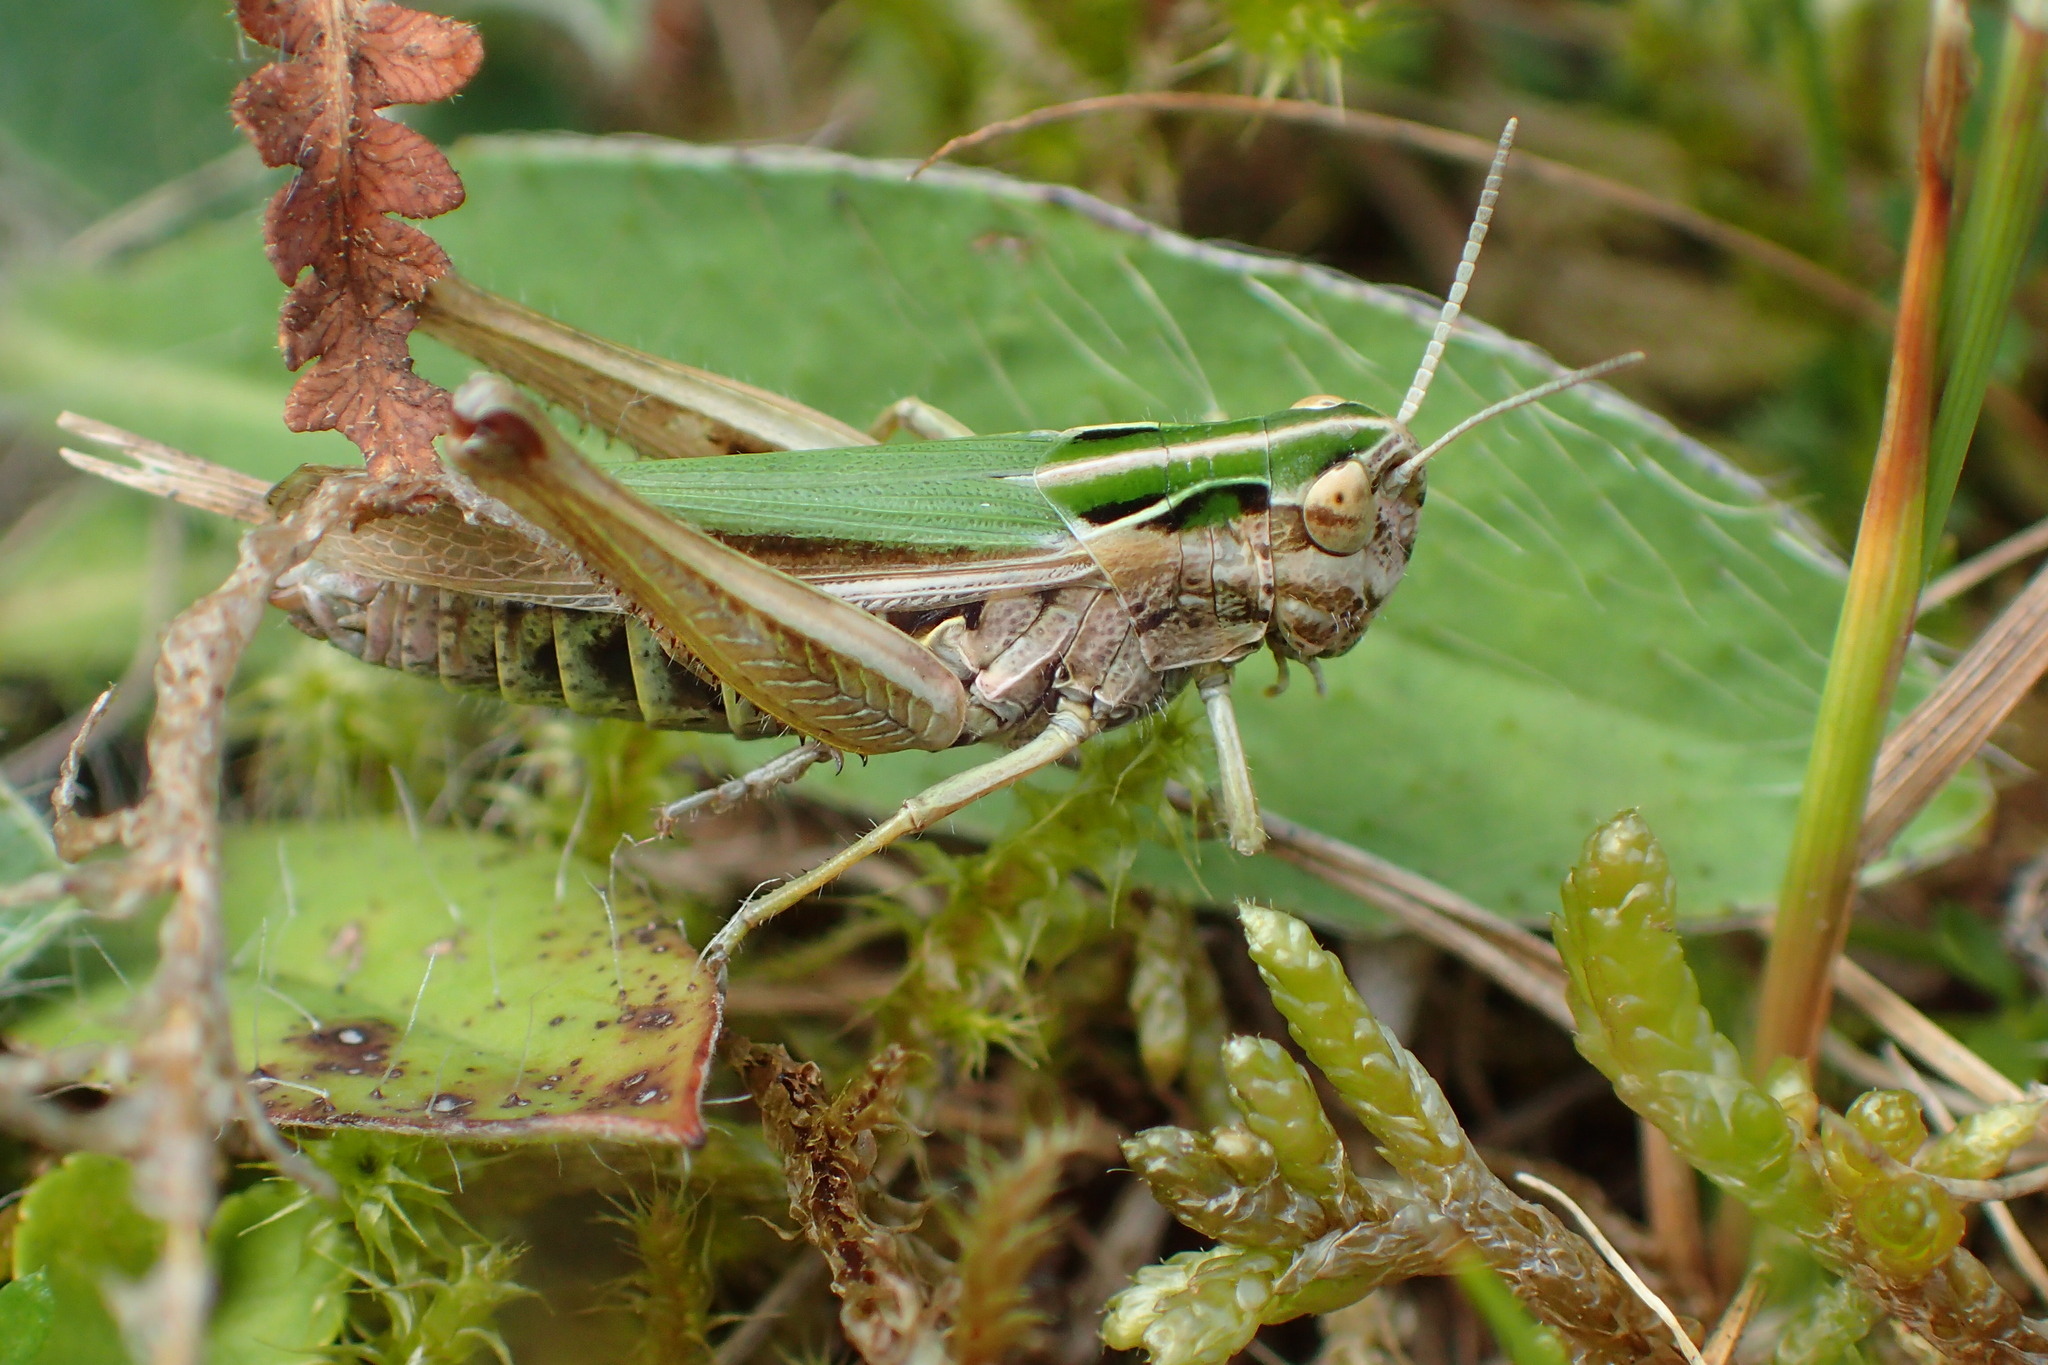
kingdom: Animalia
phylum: Arthropoda
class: Insecta
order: Orthoptera
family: Acrididae
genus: Omocestus
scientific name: Omocestus viridulus
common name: Common green grasshopper
